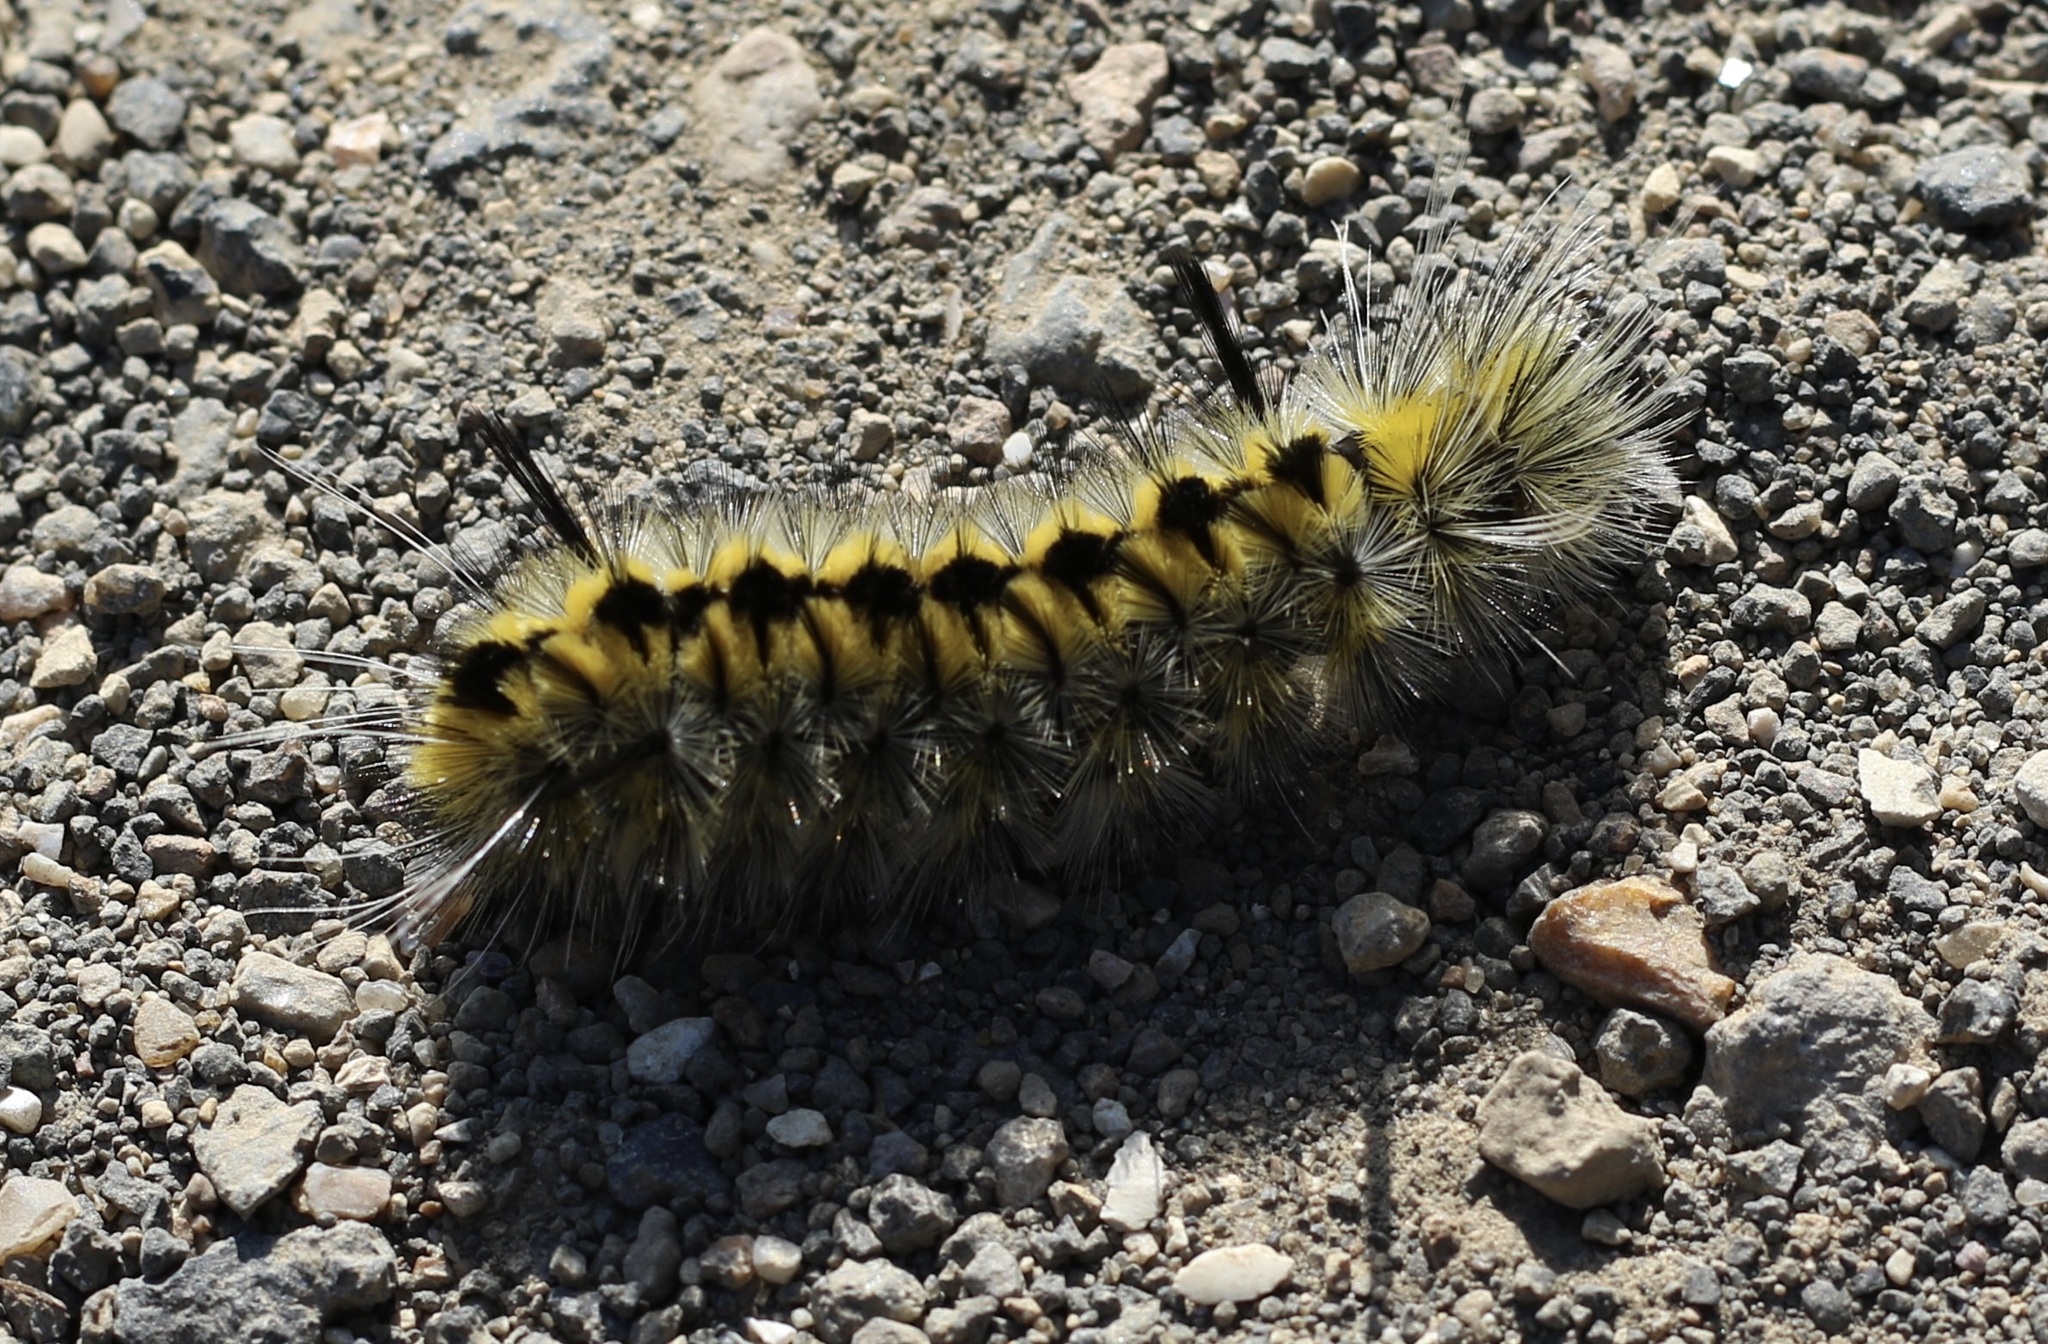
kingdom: Animalia
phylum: Arthropoda
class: Insecta
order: Lepidoptera
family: Erebidae
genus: Lophocampa
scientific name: Lophocampa indistincta
